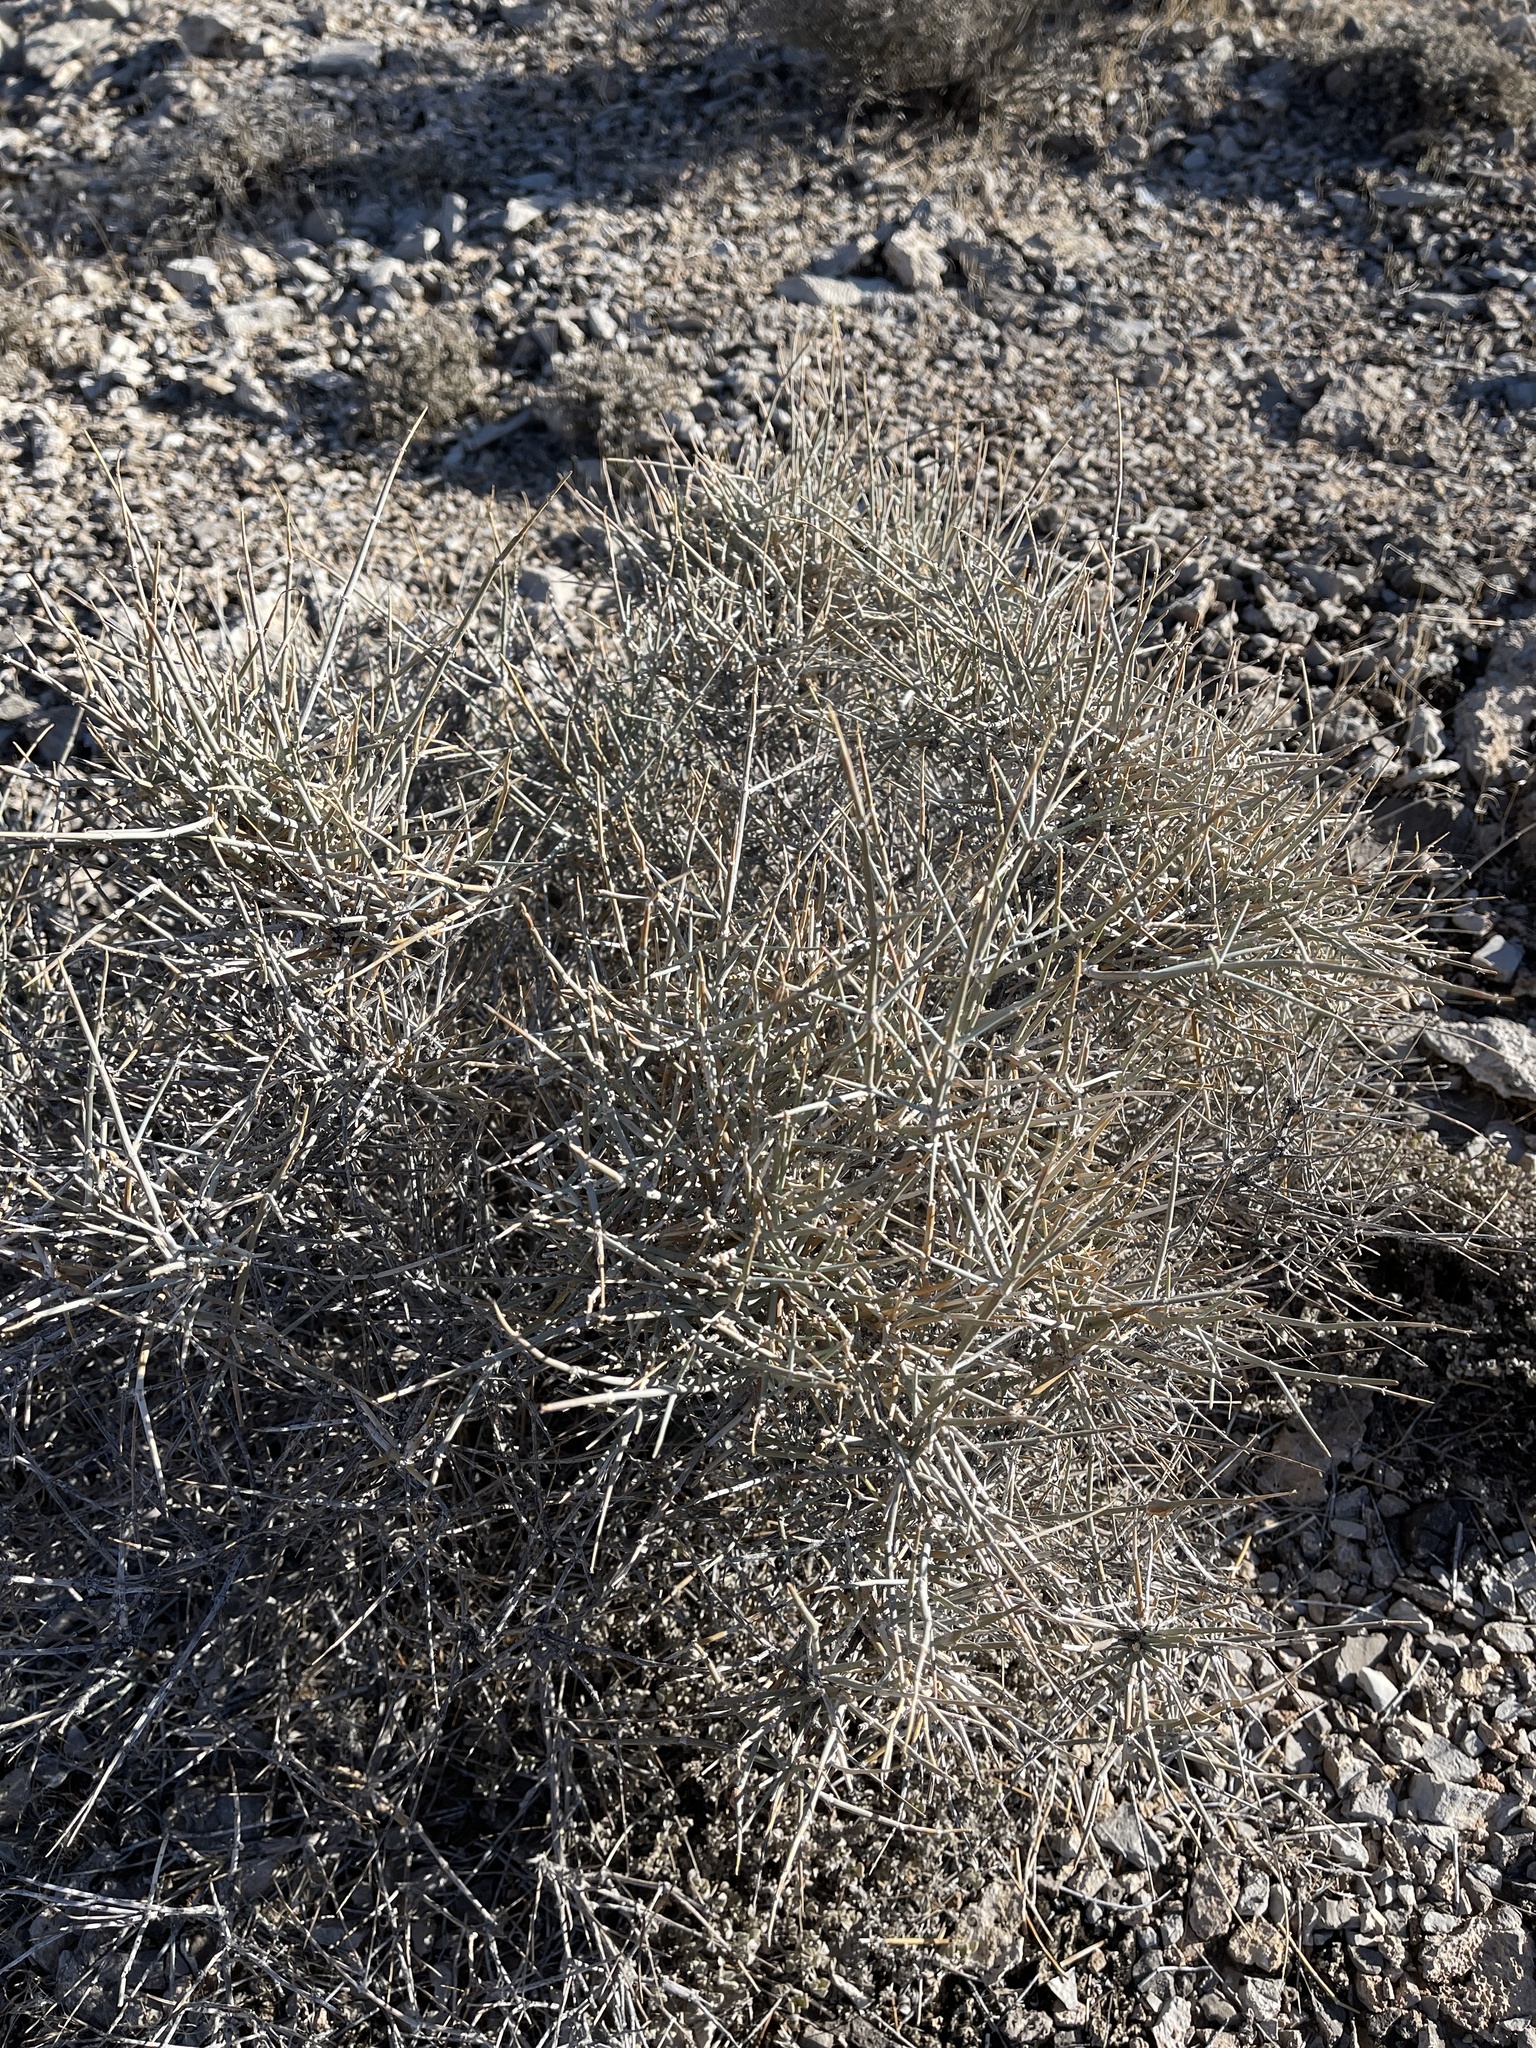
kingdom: Plantae
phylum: Tracheophyta
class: Gnetopsida
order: Ephedrales
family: Ephedraceae
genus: Ephedra
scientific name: Ephedra nevadensis
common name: Gray ephedra
